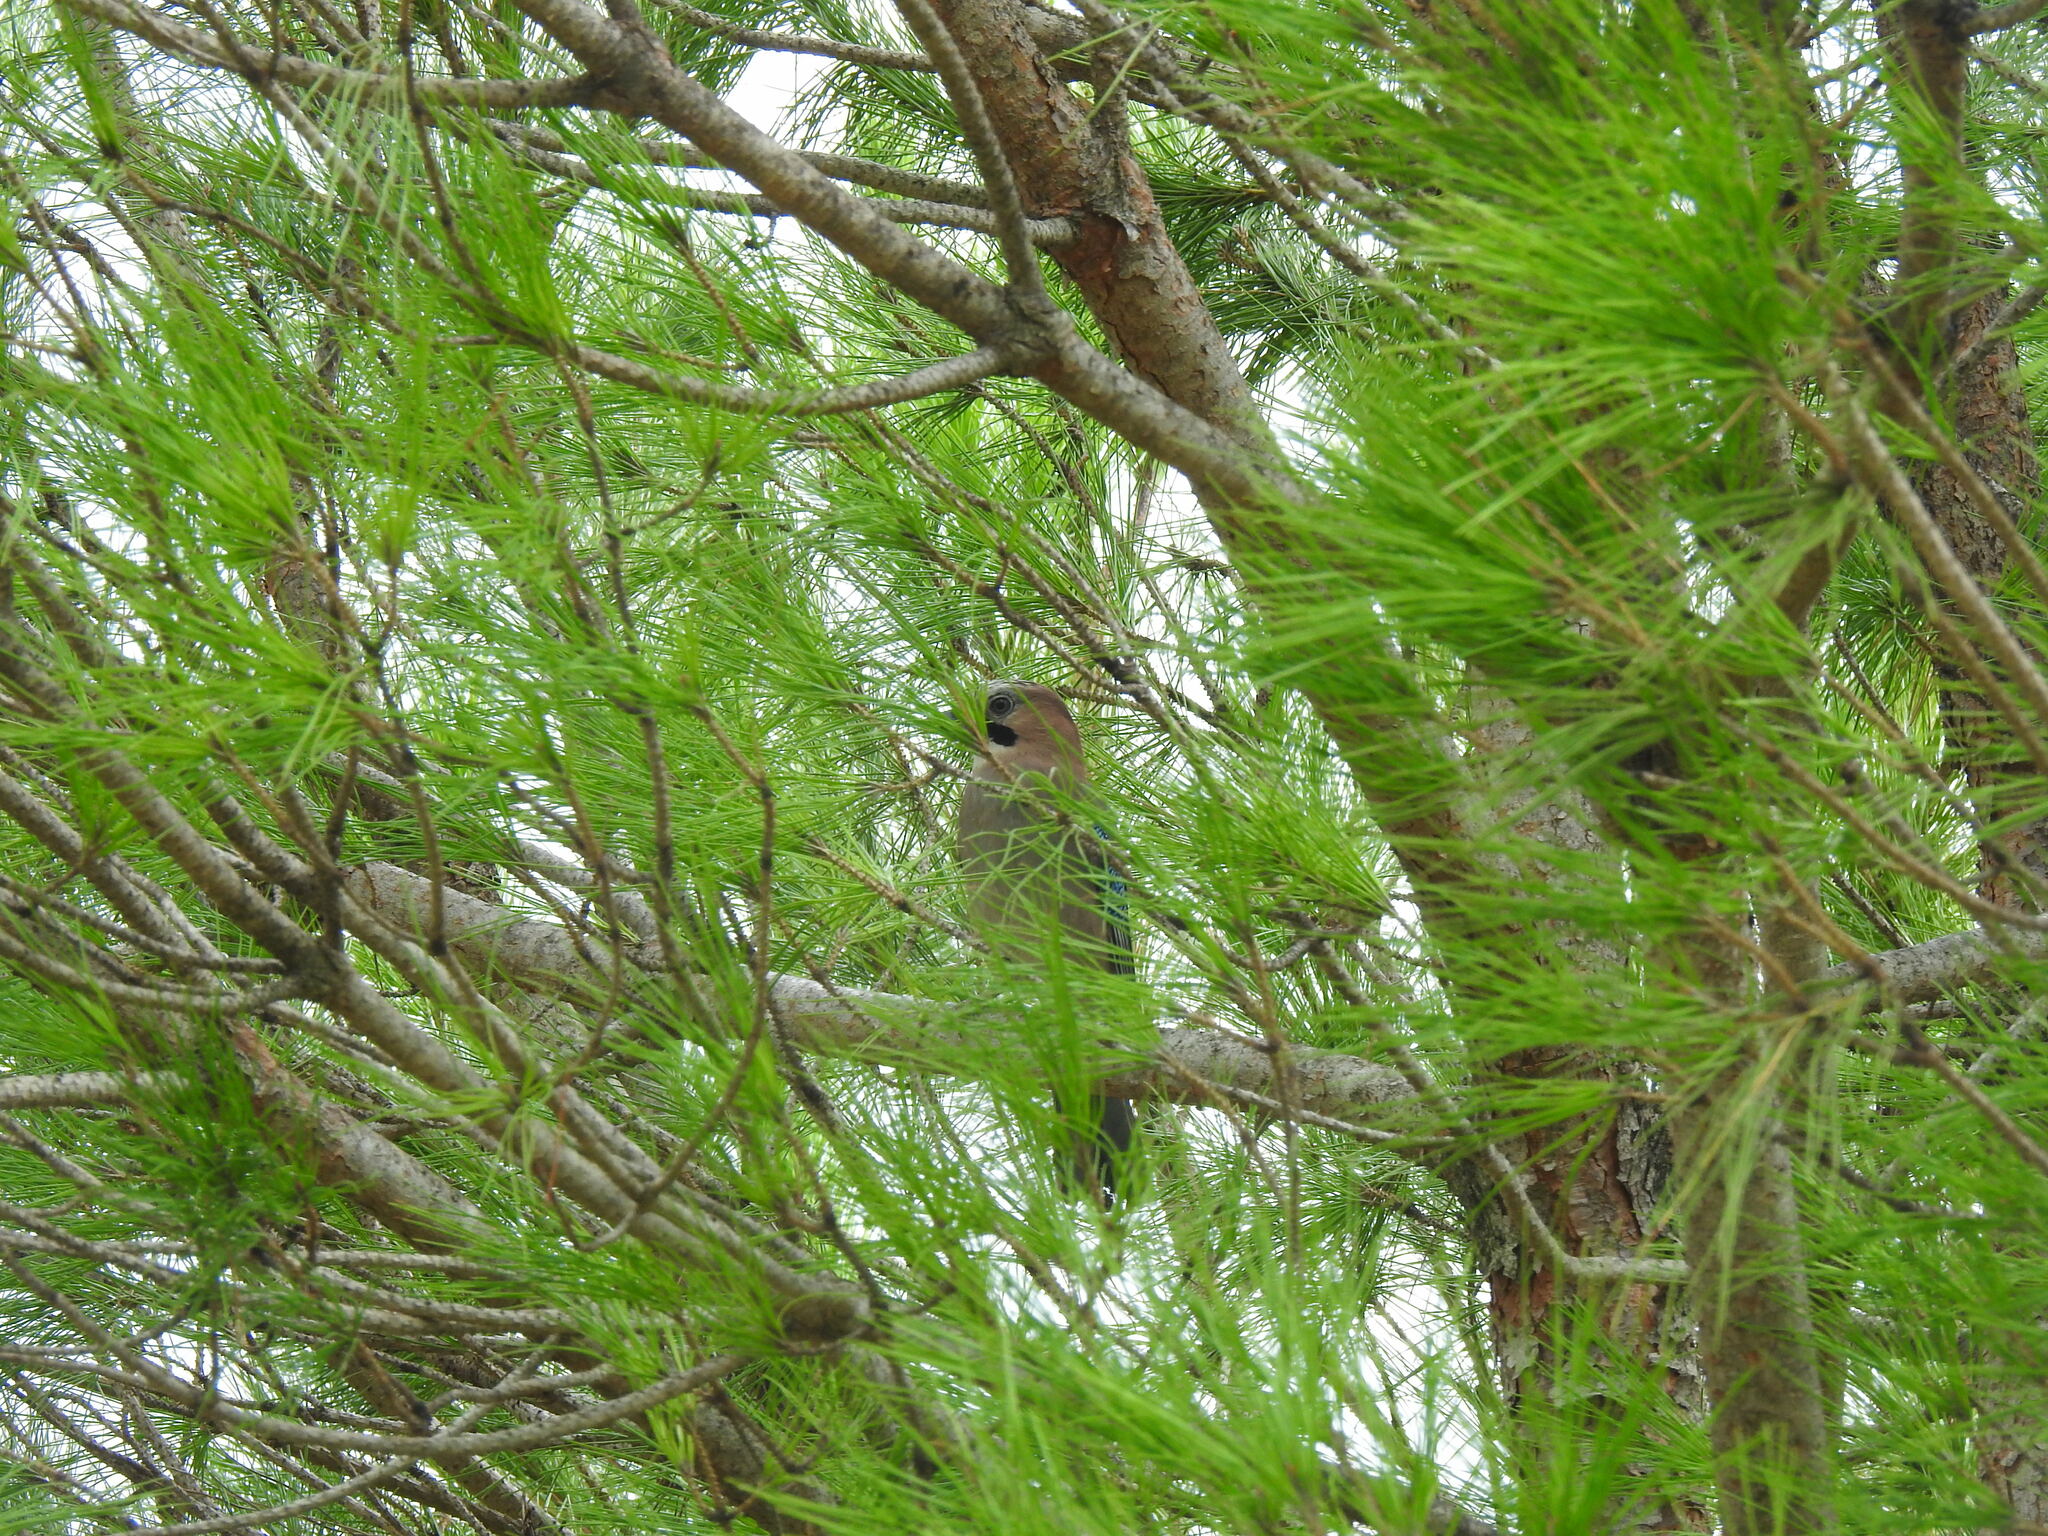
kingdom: Animalia
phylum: Chordata
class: Aves
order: Passeriformes
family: Corvidae
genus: Garrulus
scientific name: Garrulus glandarius
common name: Eurasian jay
